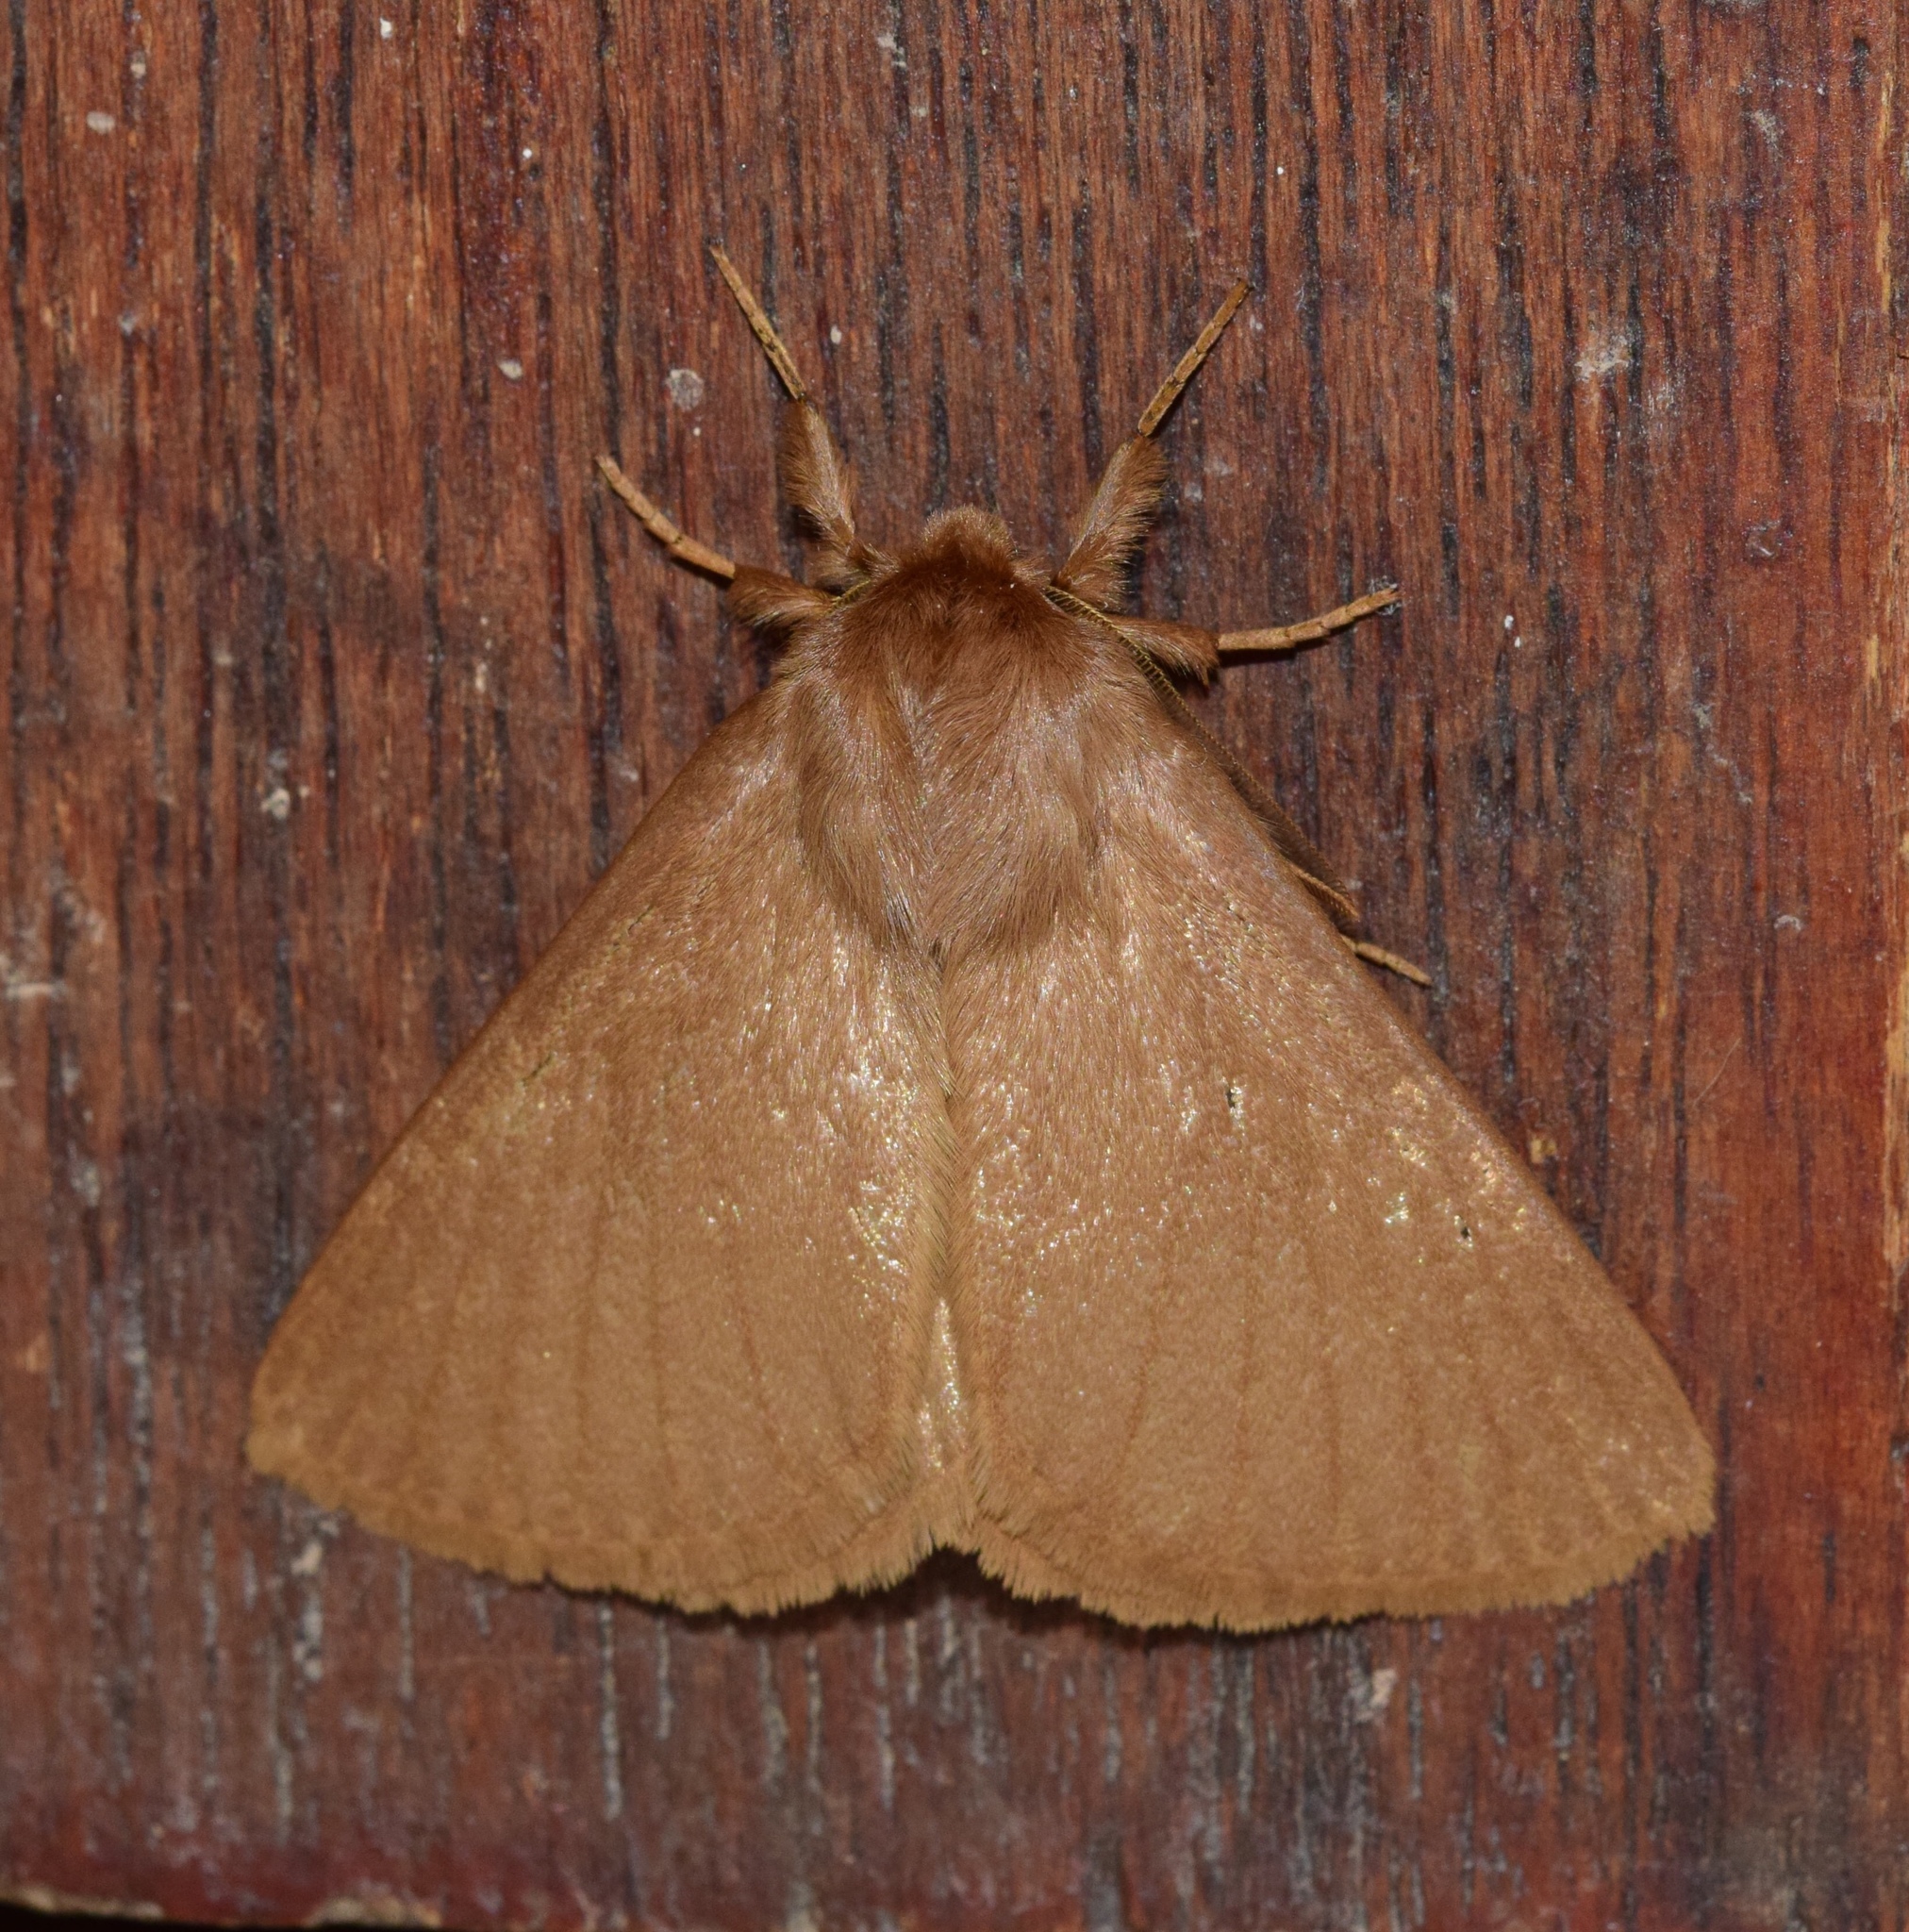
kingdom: Animalia
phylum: Arthropoda
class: Insecta
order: Lepidoptera
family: Eupterotidae
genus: Phyllalia
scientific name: Phyllalia patens
